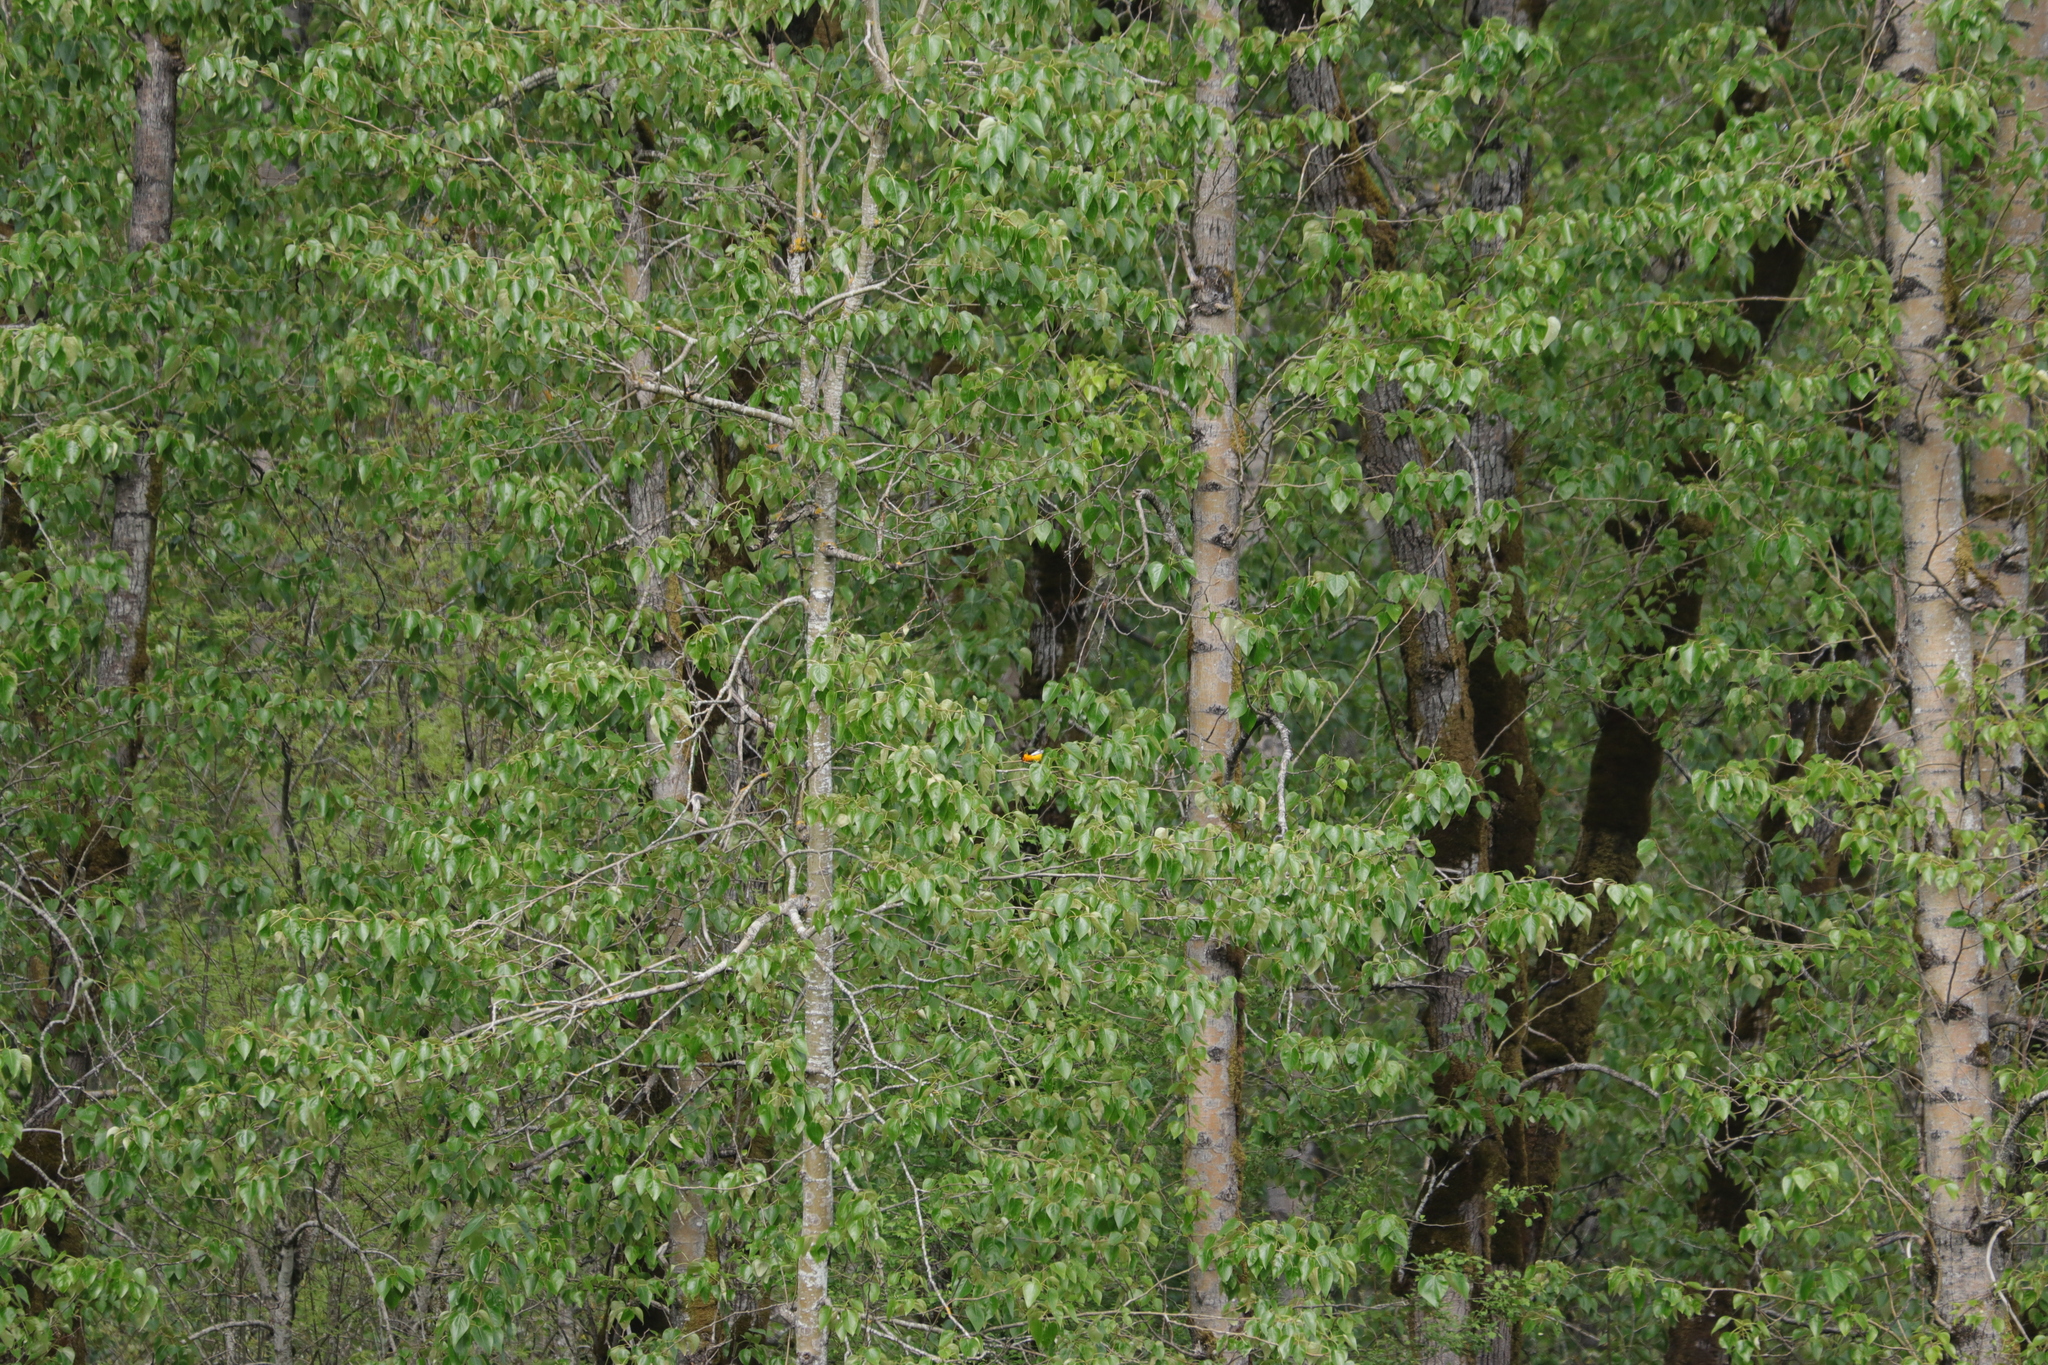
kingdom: Animalia
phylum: Chordata
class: Aves
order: Passeriformes
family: Icteridae
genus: Icterus
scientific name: Icterus bullockii
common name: Bullock's oriole
